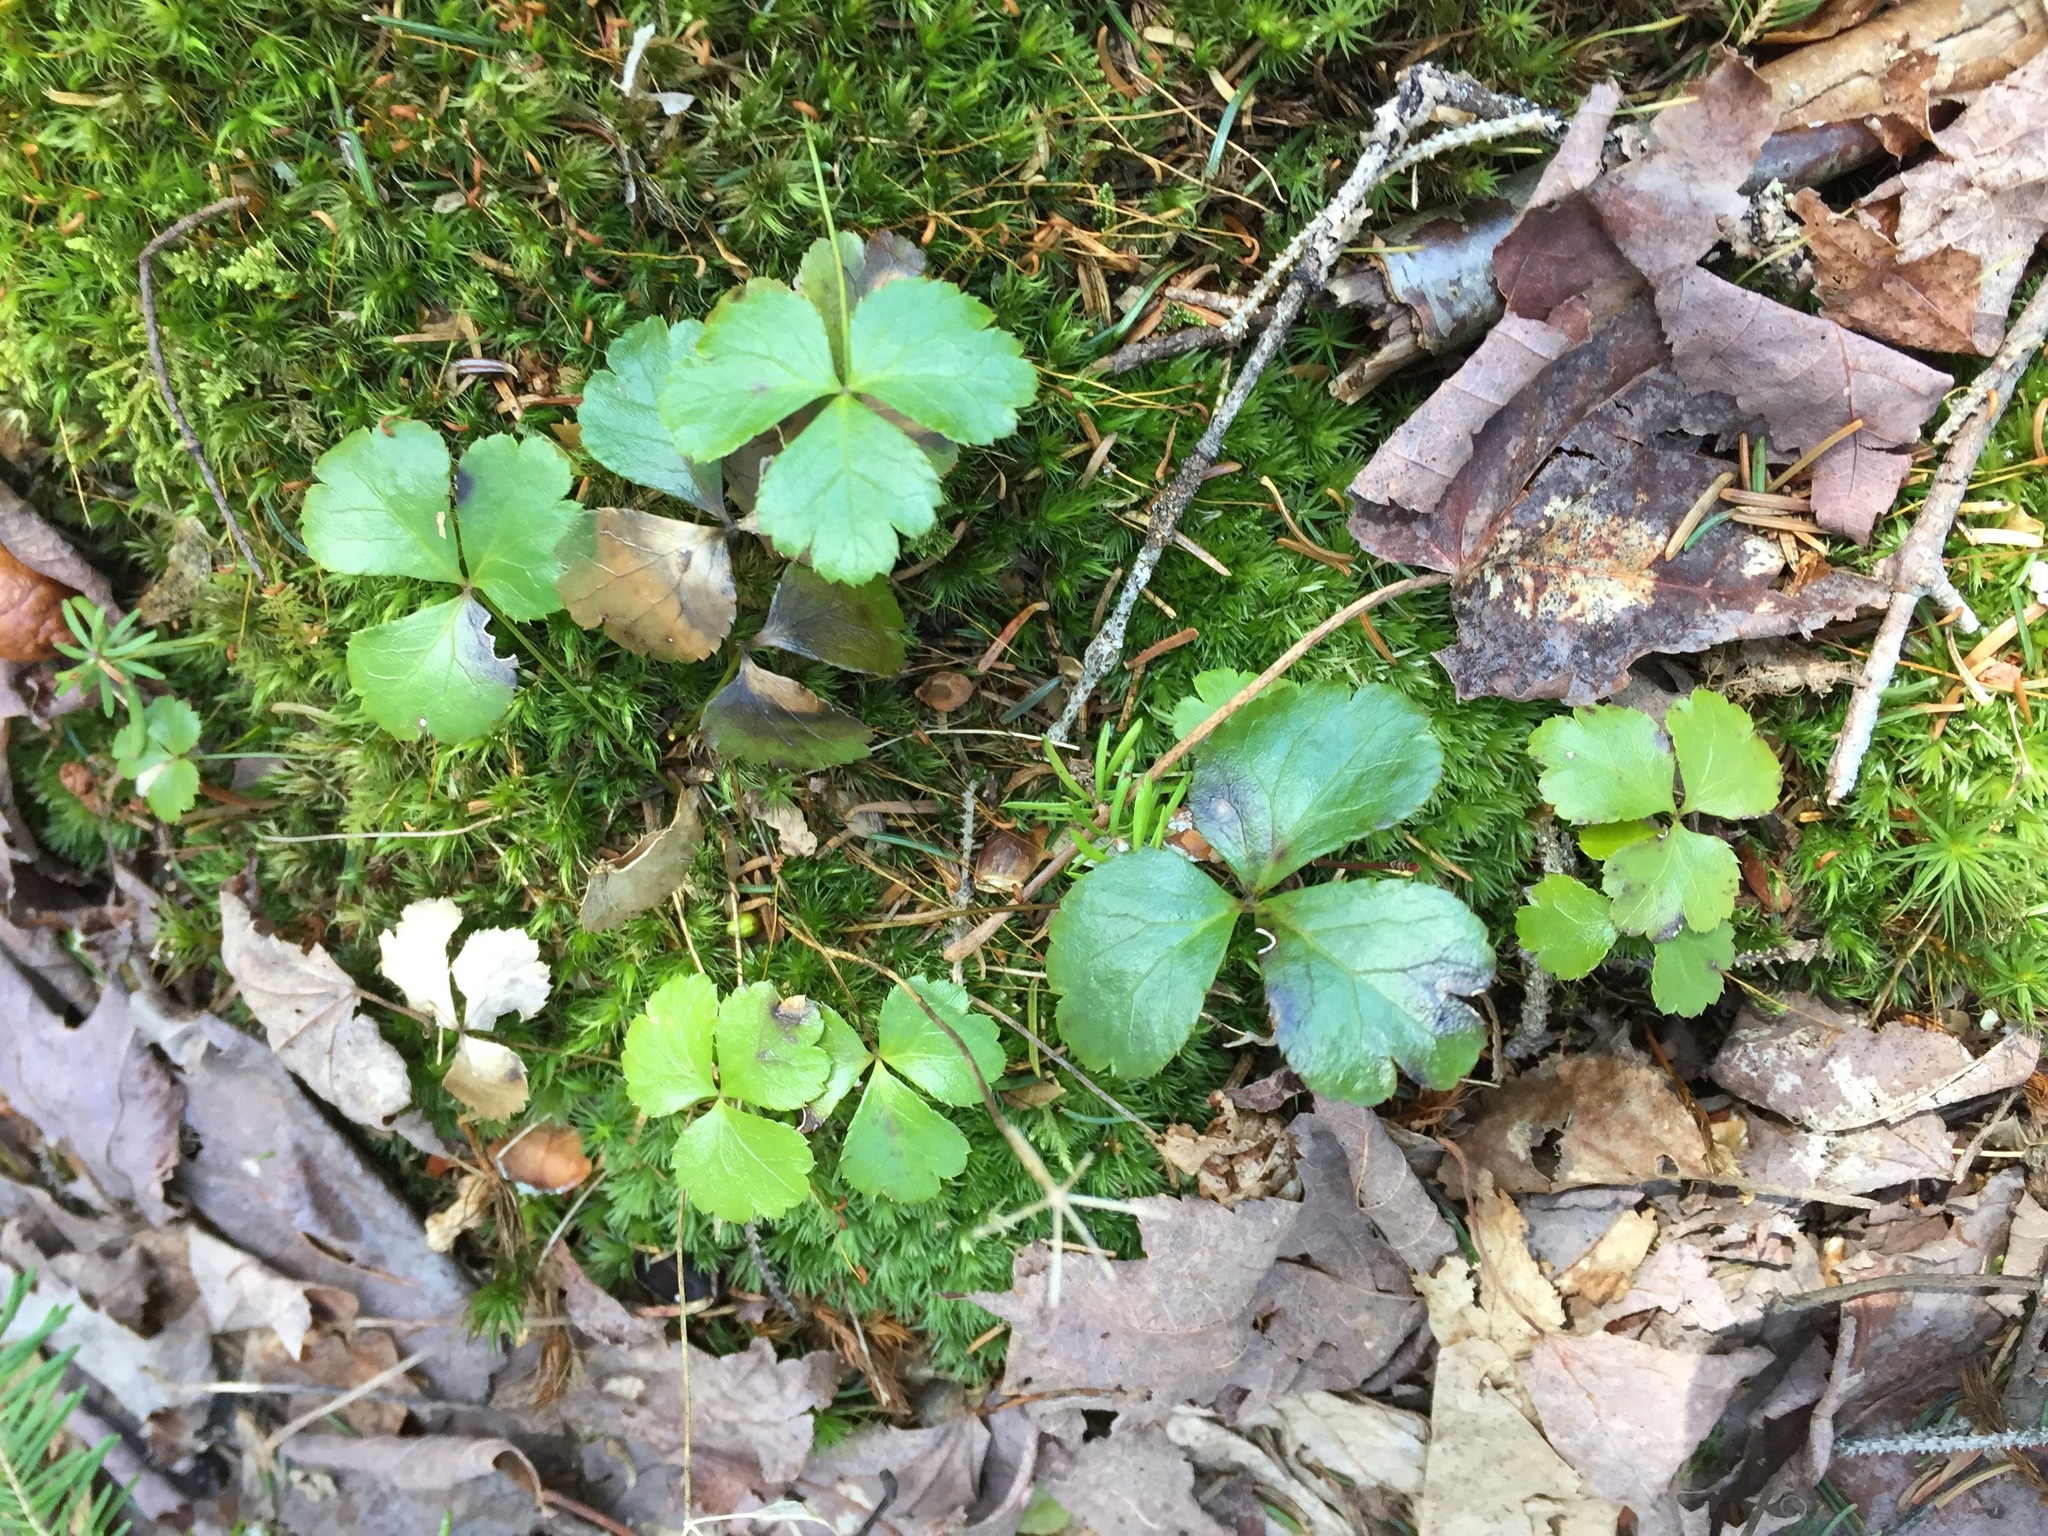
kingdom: Plantae
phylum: Tracheophyta
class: Magnoliopsida
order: Ranunculales
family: Ranunculaceae
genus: Coptis
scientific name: Coptis trifolia
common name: Canker-root
